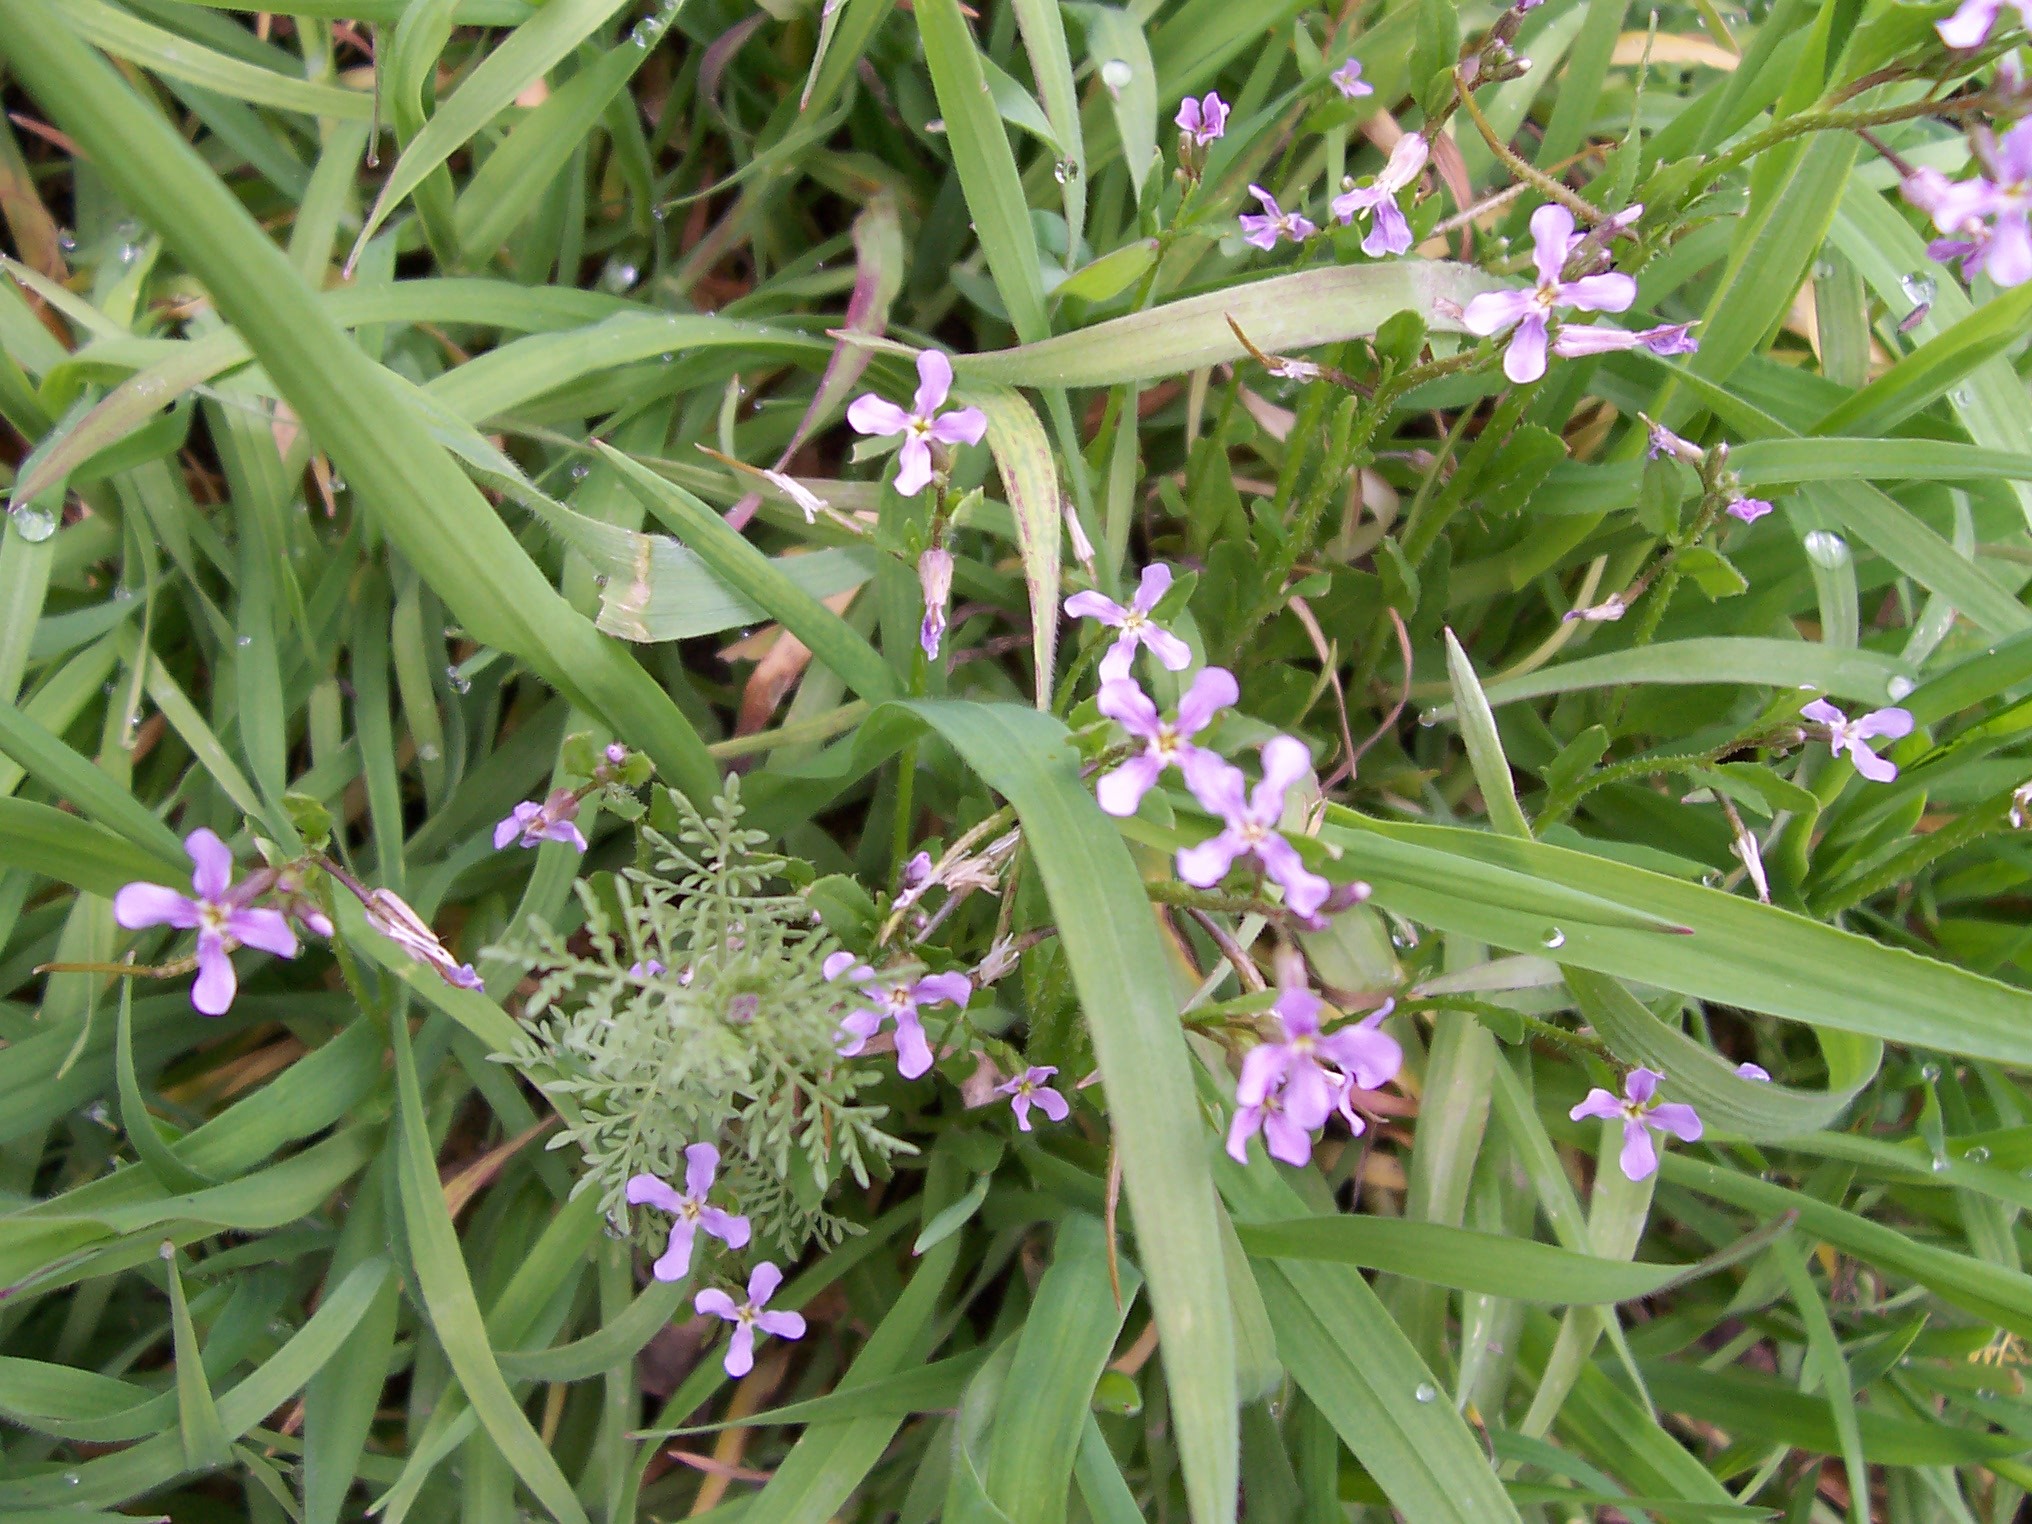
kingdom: Plantae
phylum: Tracheophyta
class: Magnoliopsida
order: Brassicales
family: Brassicaceae
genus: Chorispora
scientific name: Chorispora tenella
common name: Crossflower
